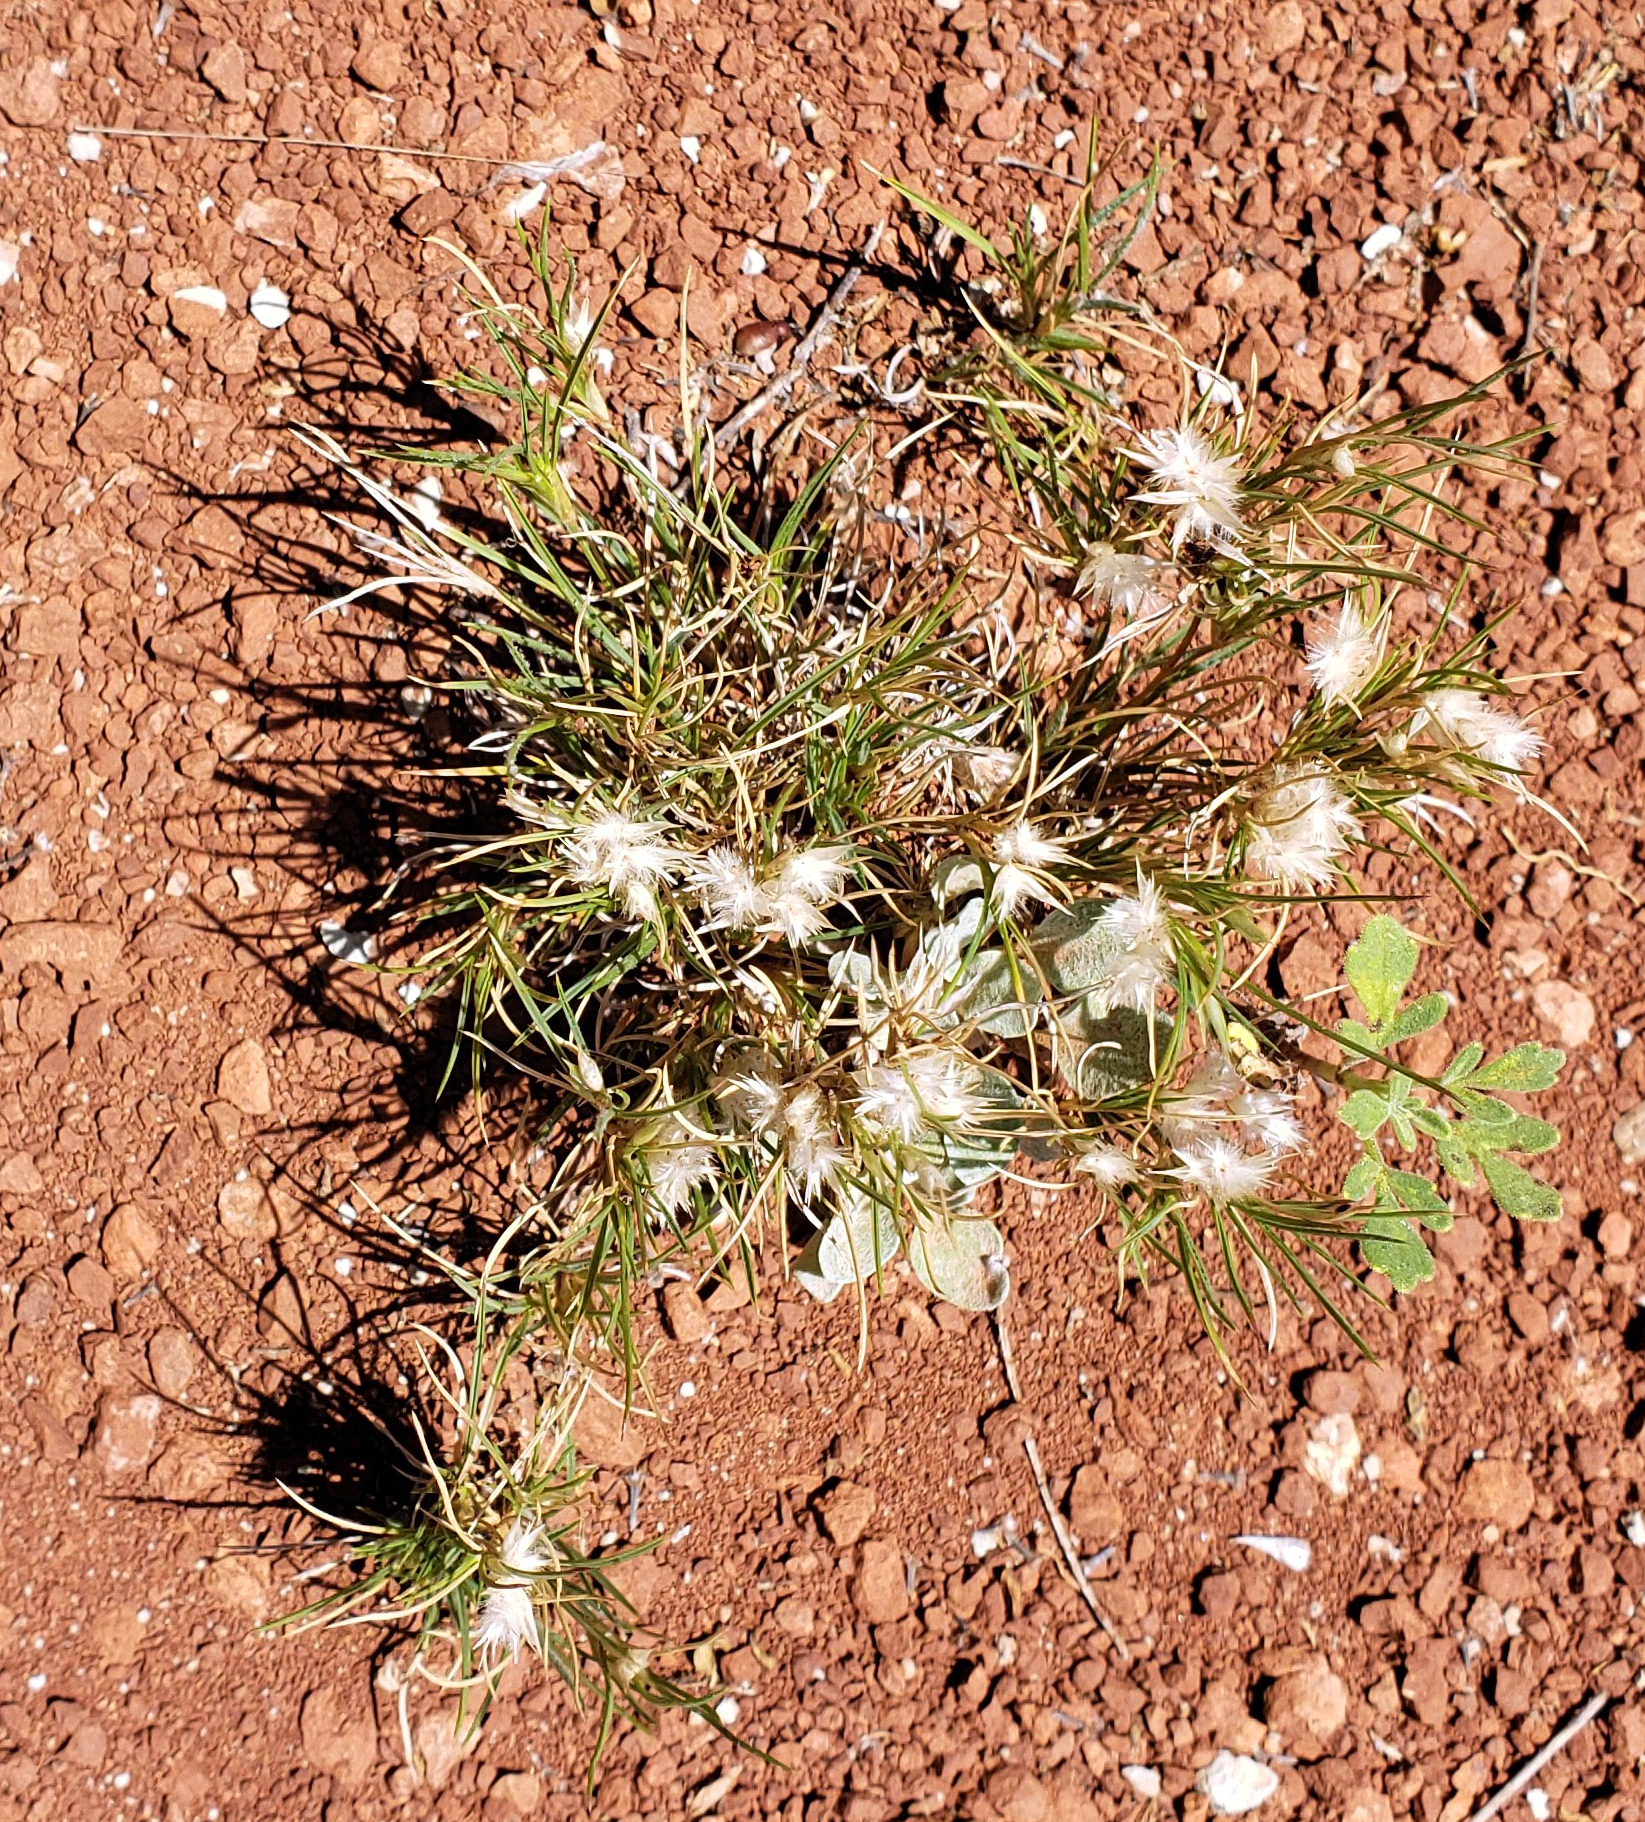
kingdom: Plantae
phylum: Tracheophyta
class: Liliopsida
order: Poales
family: Poaceae
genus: Dasyochloa
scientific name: Dasyochloa pulchella
